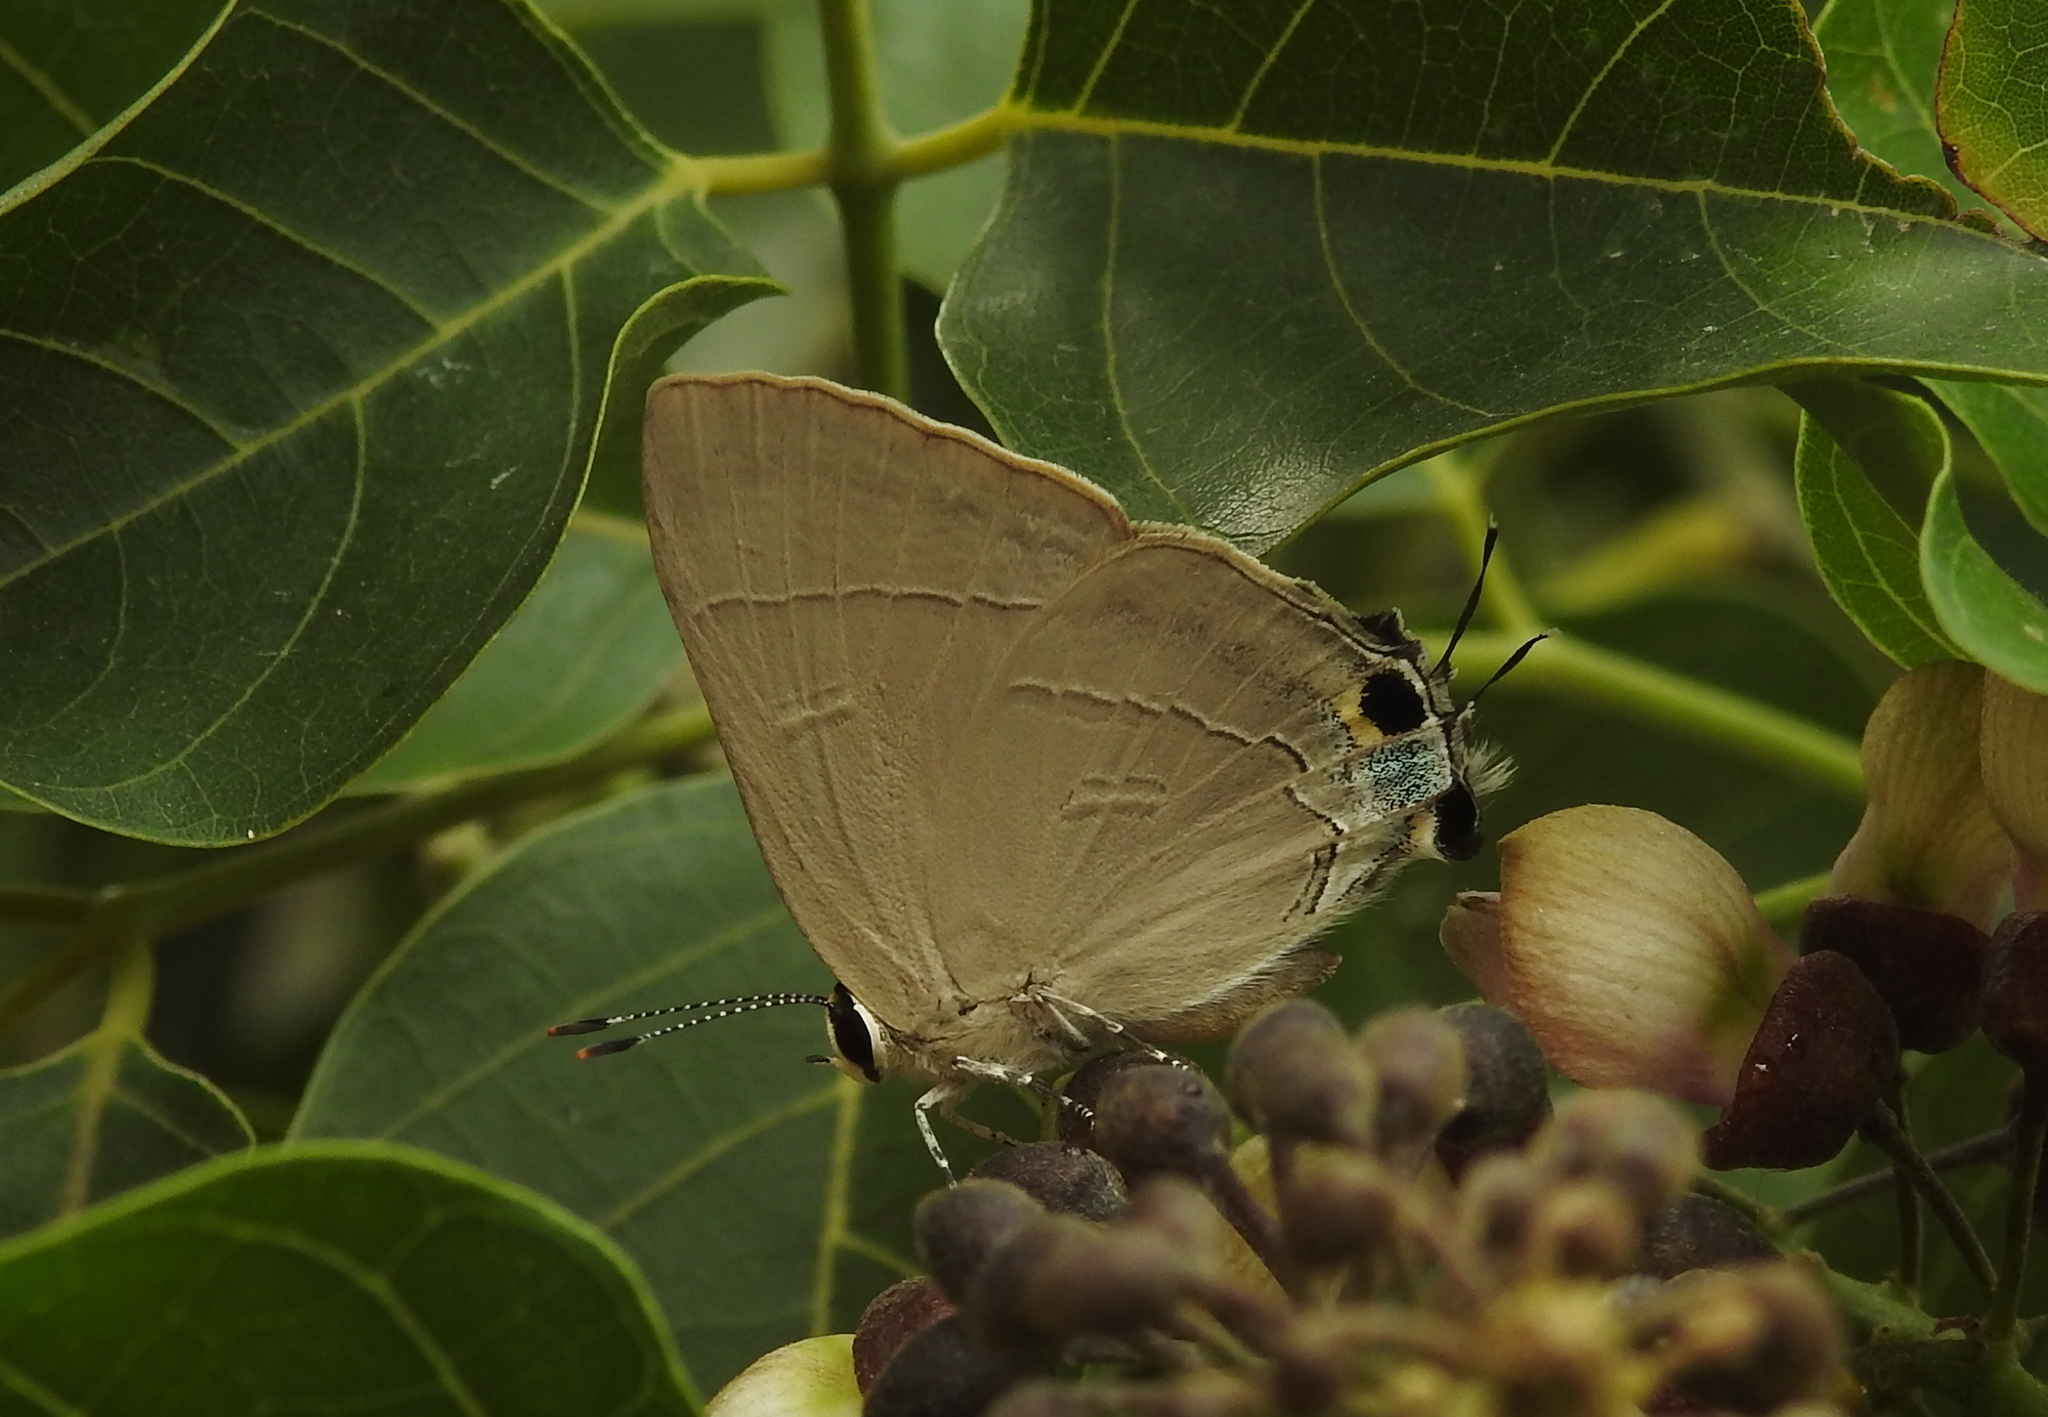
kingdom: Animalia
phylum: Arthropoda
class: Insecta
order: Lepidoptera
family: Lycaenidae
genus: Rapala
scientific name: Rapala manea
